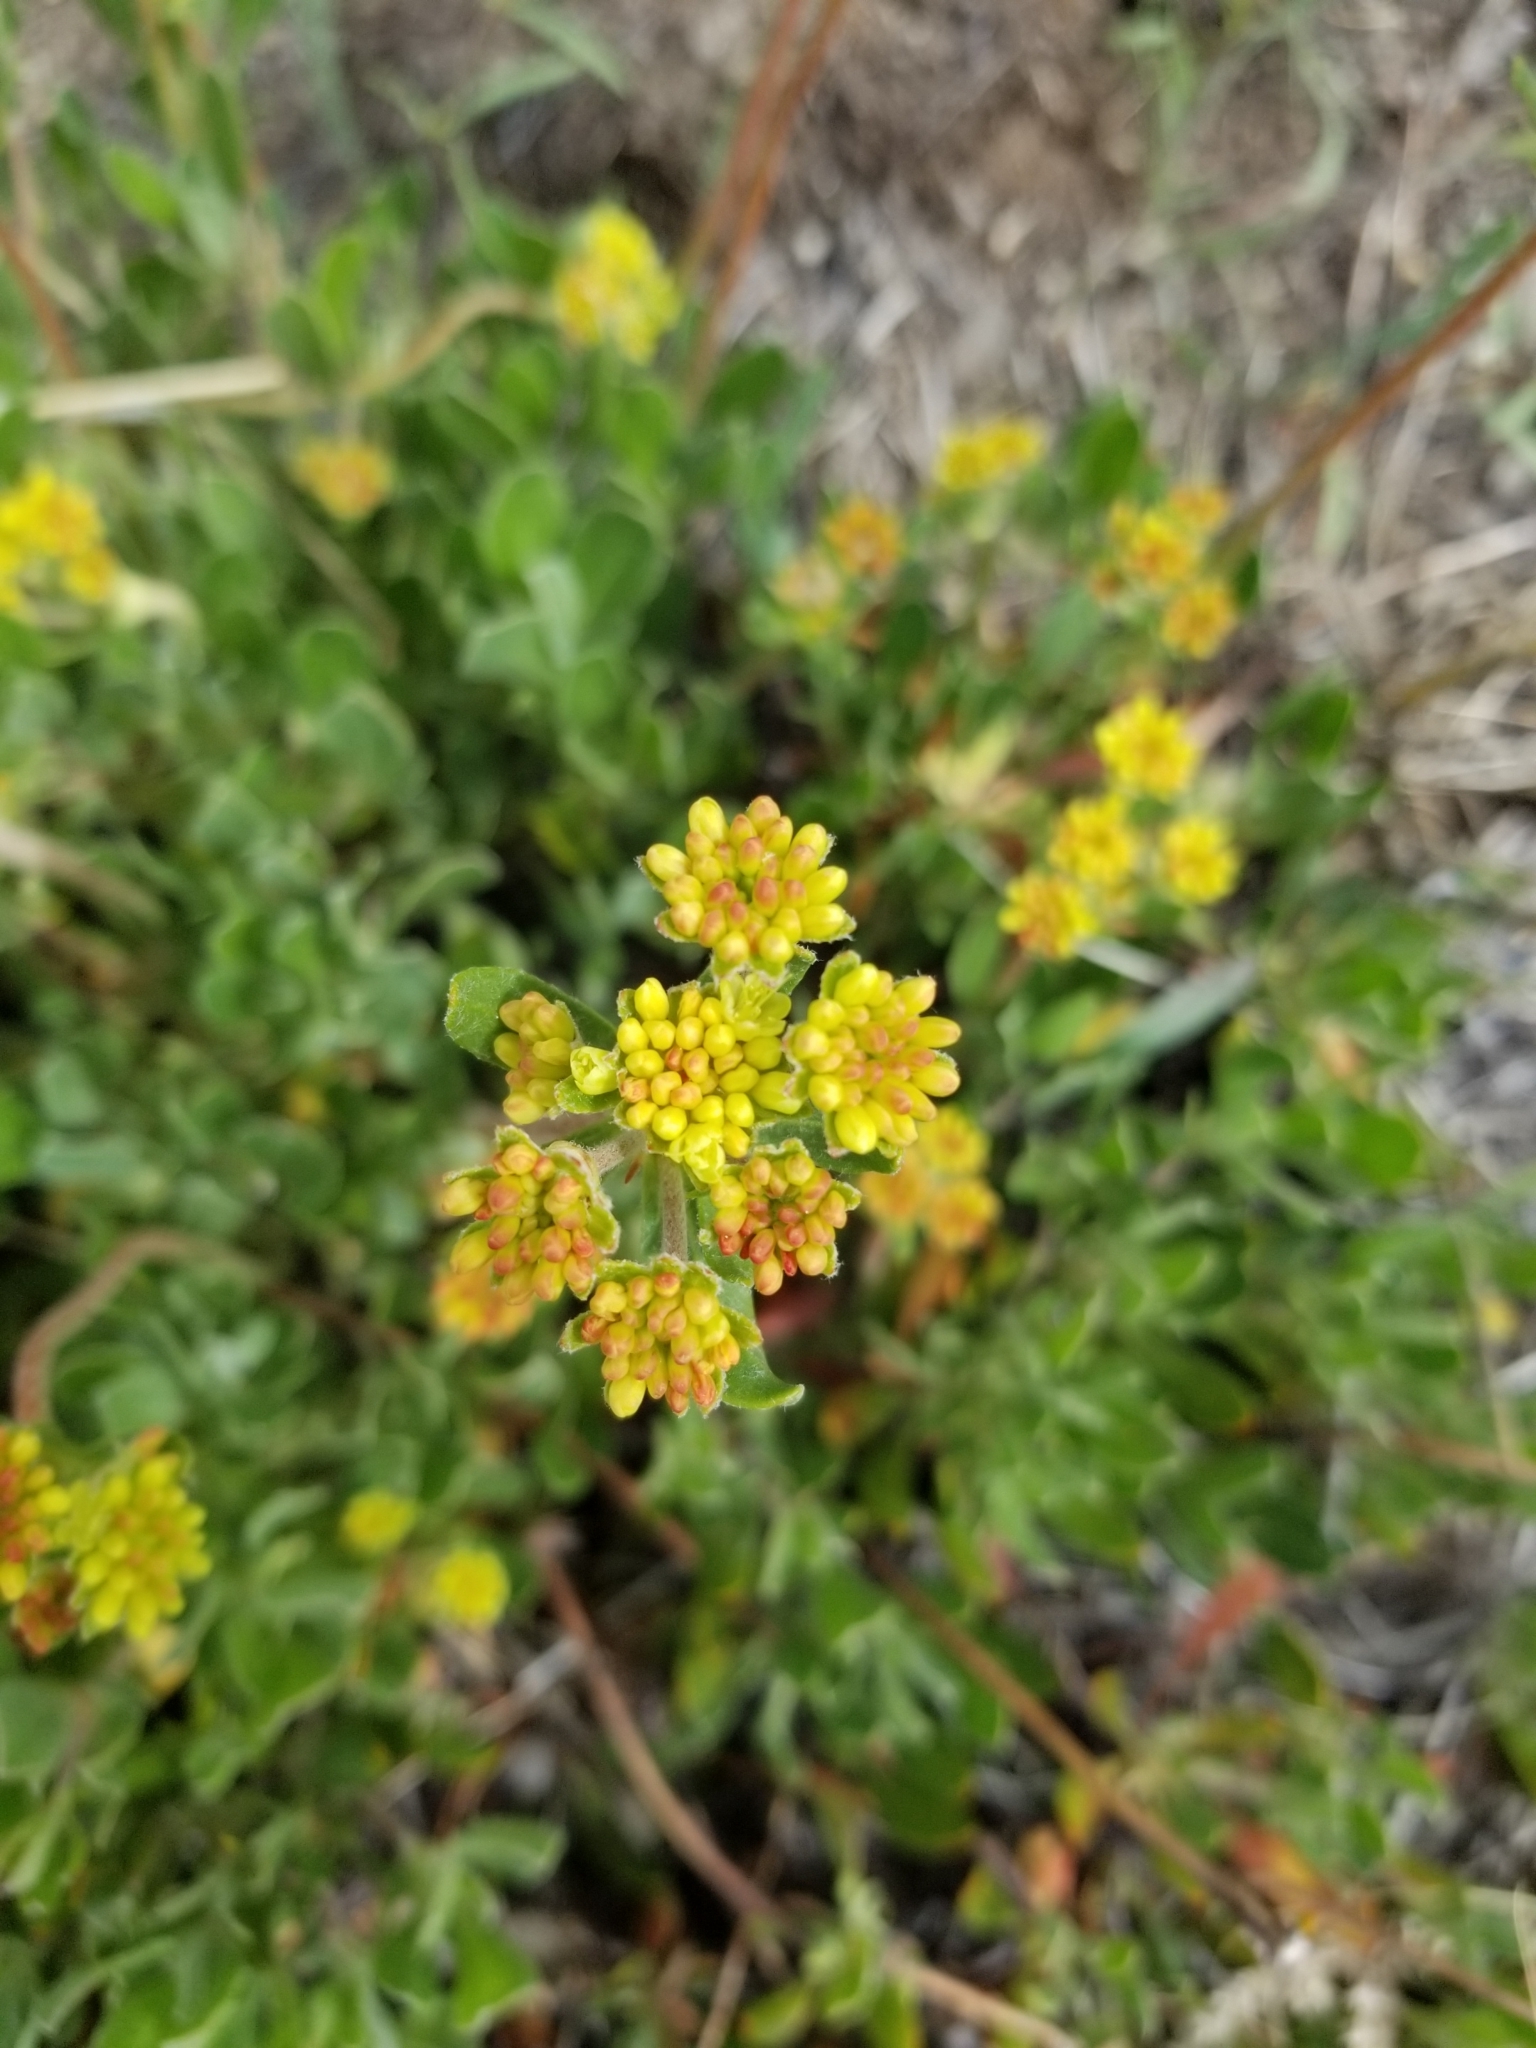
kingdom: Plantae
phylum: Tracheophyta
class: Magnoliopsida
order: Caryophyllales
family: Polygonaceae
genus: Eriogonum
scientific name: Eriogonum umbellatum
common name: Sulfur-buckwheat
